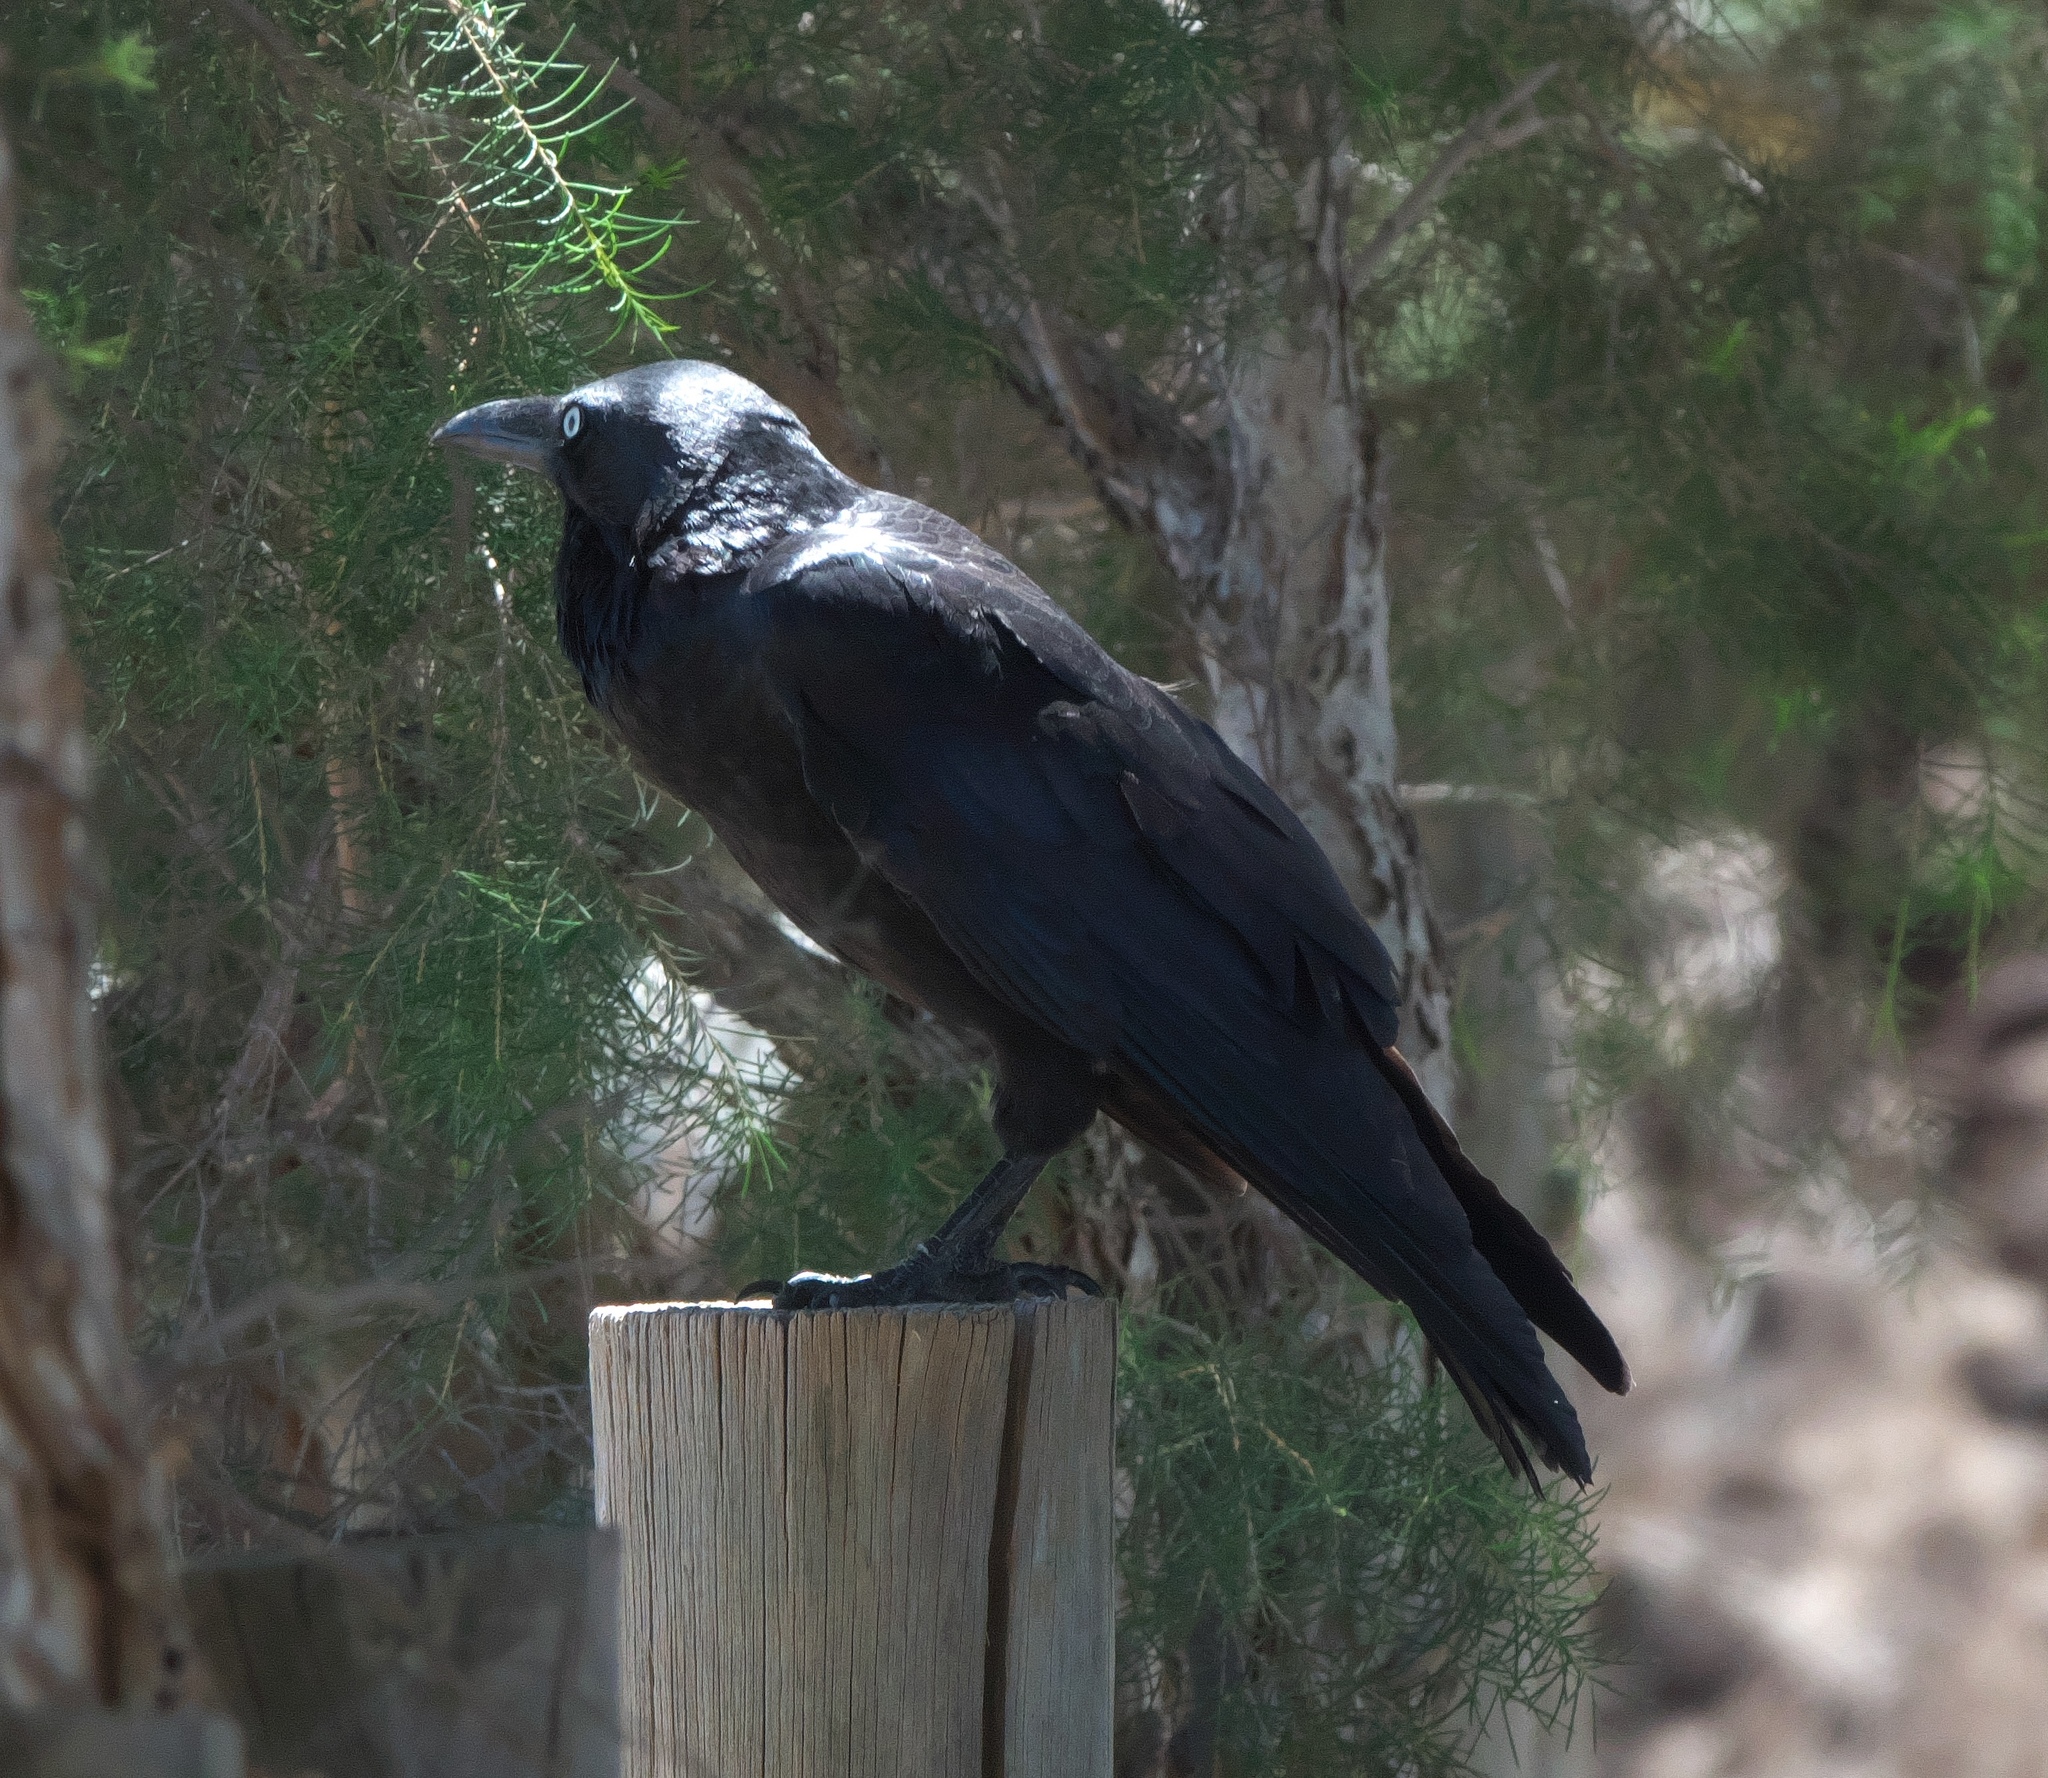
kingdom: Animalia
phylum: Chordata
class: Aves
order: Passeriformes
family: Corvidae
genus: Corvus
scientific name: Corvus coronoides
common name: Australian raven
